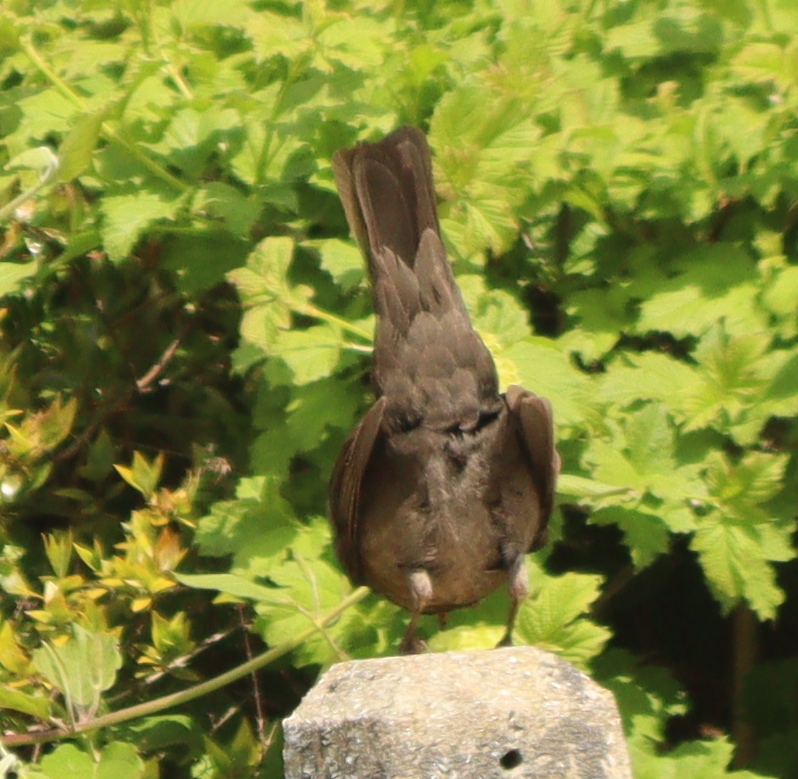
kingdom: Animalia
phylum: Chordata
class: Aves
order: Passeriformes
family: Turdidae
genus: Turdus
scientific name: Turdus merula
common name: Common blackbird
